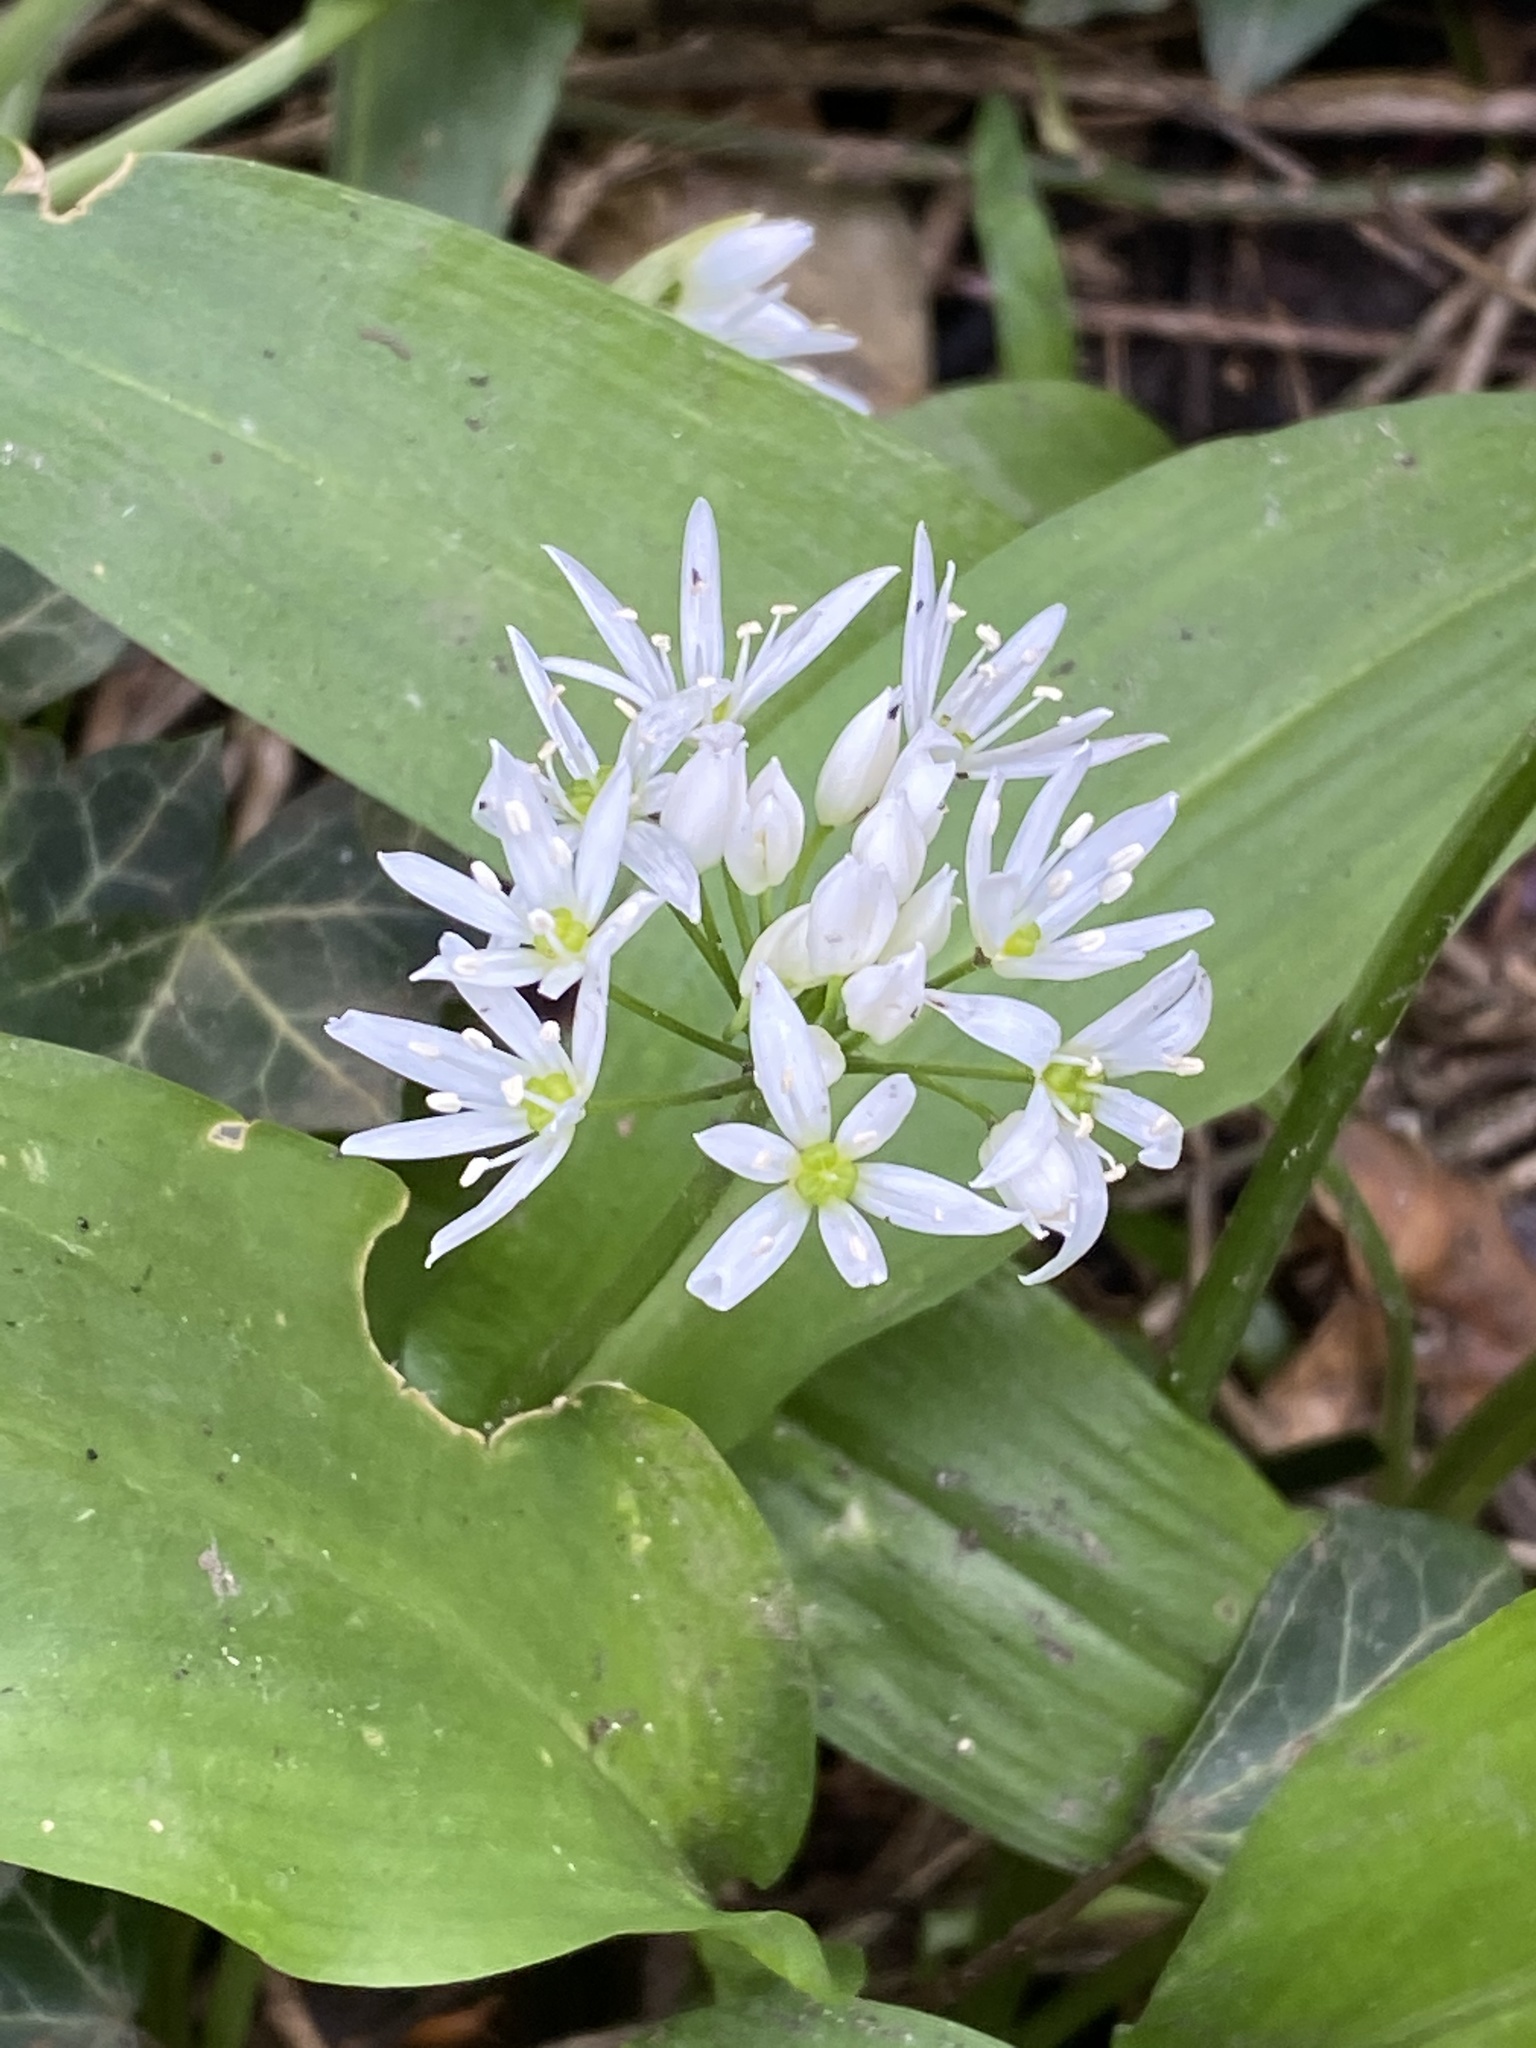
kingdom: Plantae
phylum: Tracheophyta
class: Liliopsida
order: Asparagales
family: Amaryllidaceae
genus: Allium
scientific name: Allium ursinum
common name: Ramsons
